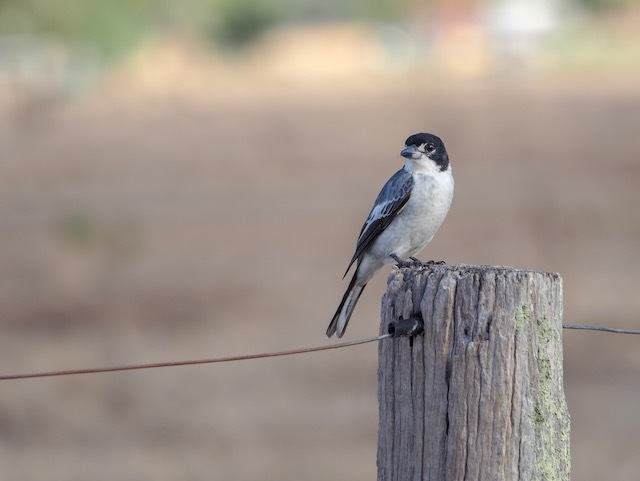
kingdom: Animalia
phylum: Chordata
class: Aves
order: Passeriformes
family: Cracticidae
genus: Cracticus
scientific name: Cracticus torquatus
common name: Grey butcherbird
